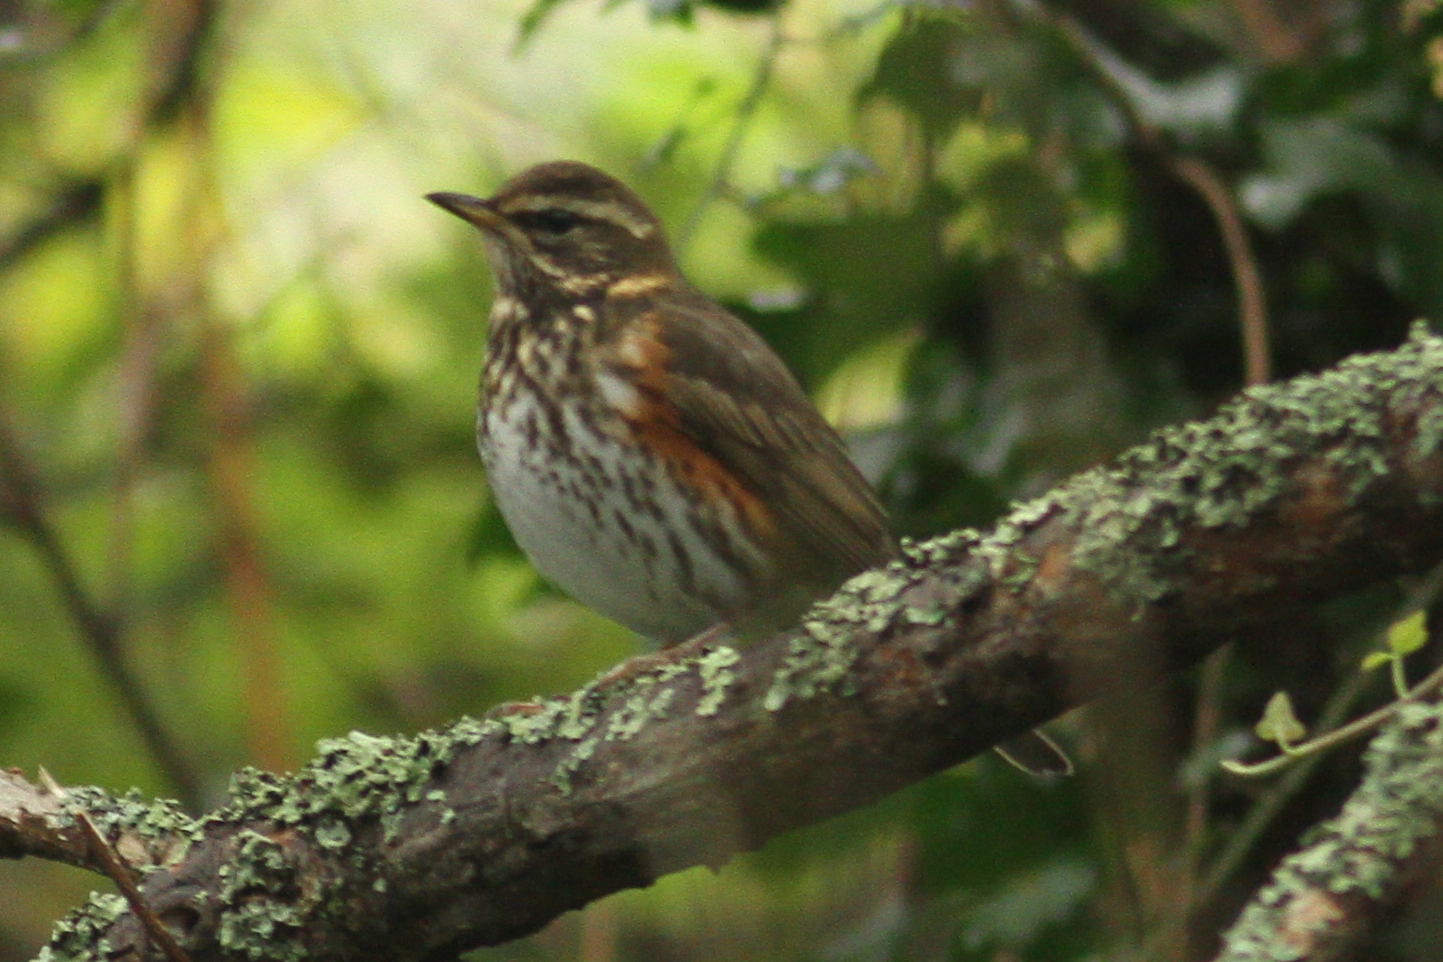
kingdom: Animalia
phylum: Chordata
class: Aves
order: Passeriformes
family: Turdidae
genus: Turdus
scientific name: Turdus iliacus
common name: Redwing
